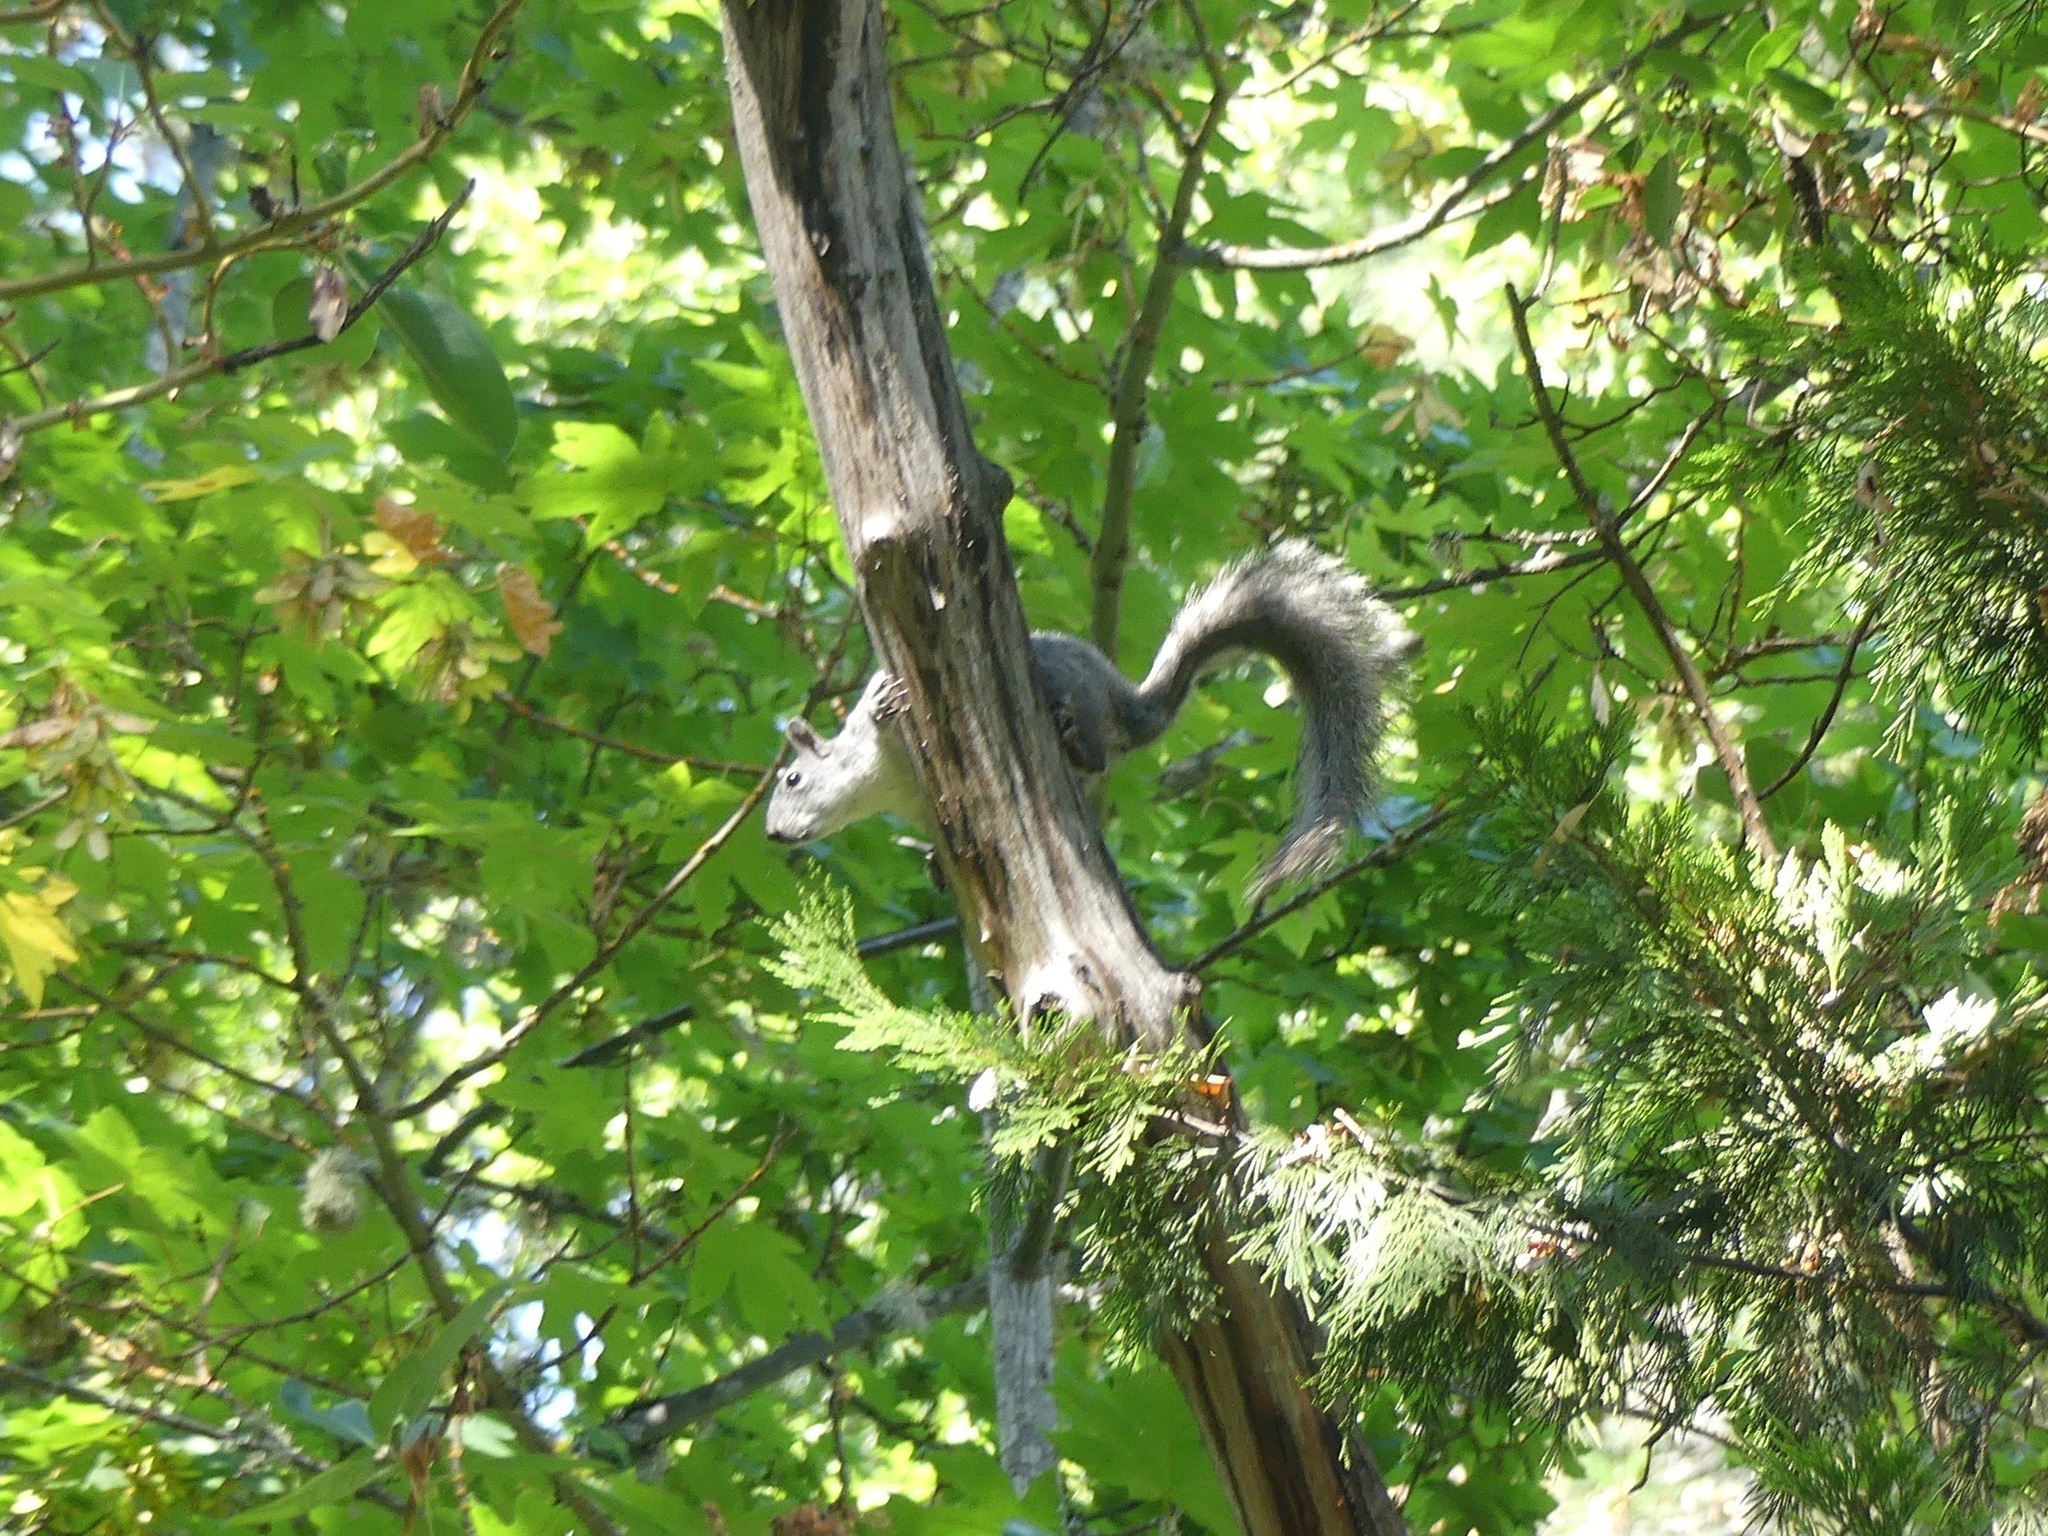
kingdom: Animalia
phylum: Chordata
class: Mammalia
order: Rodentia
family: Sciuridae
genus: Sciurus
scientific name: Sciurus griseus
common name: Western gray squirrel
